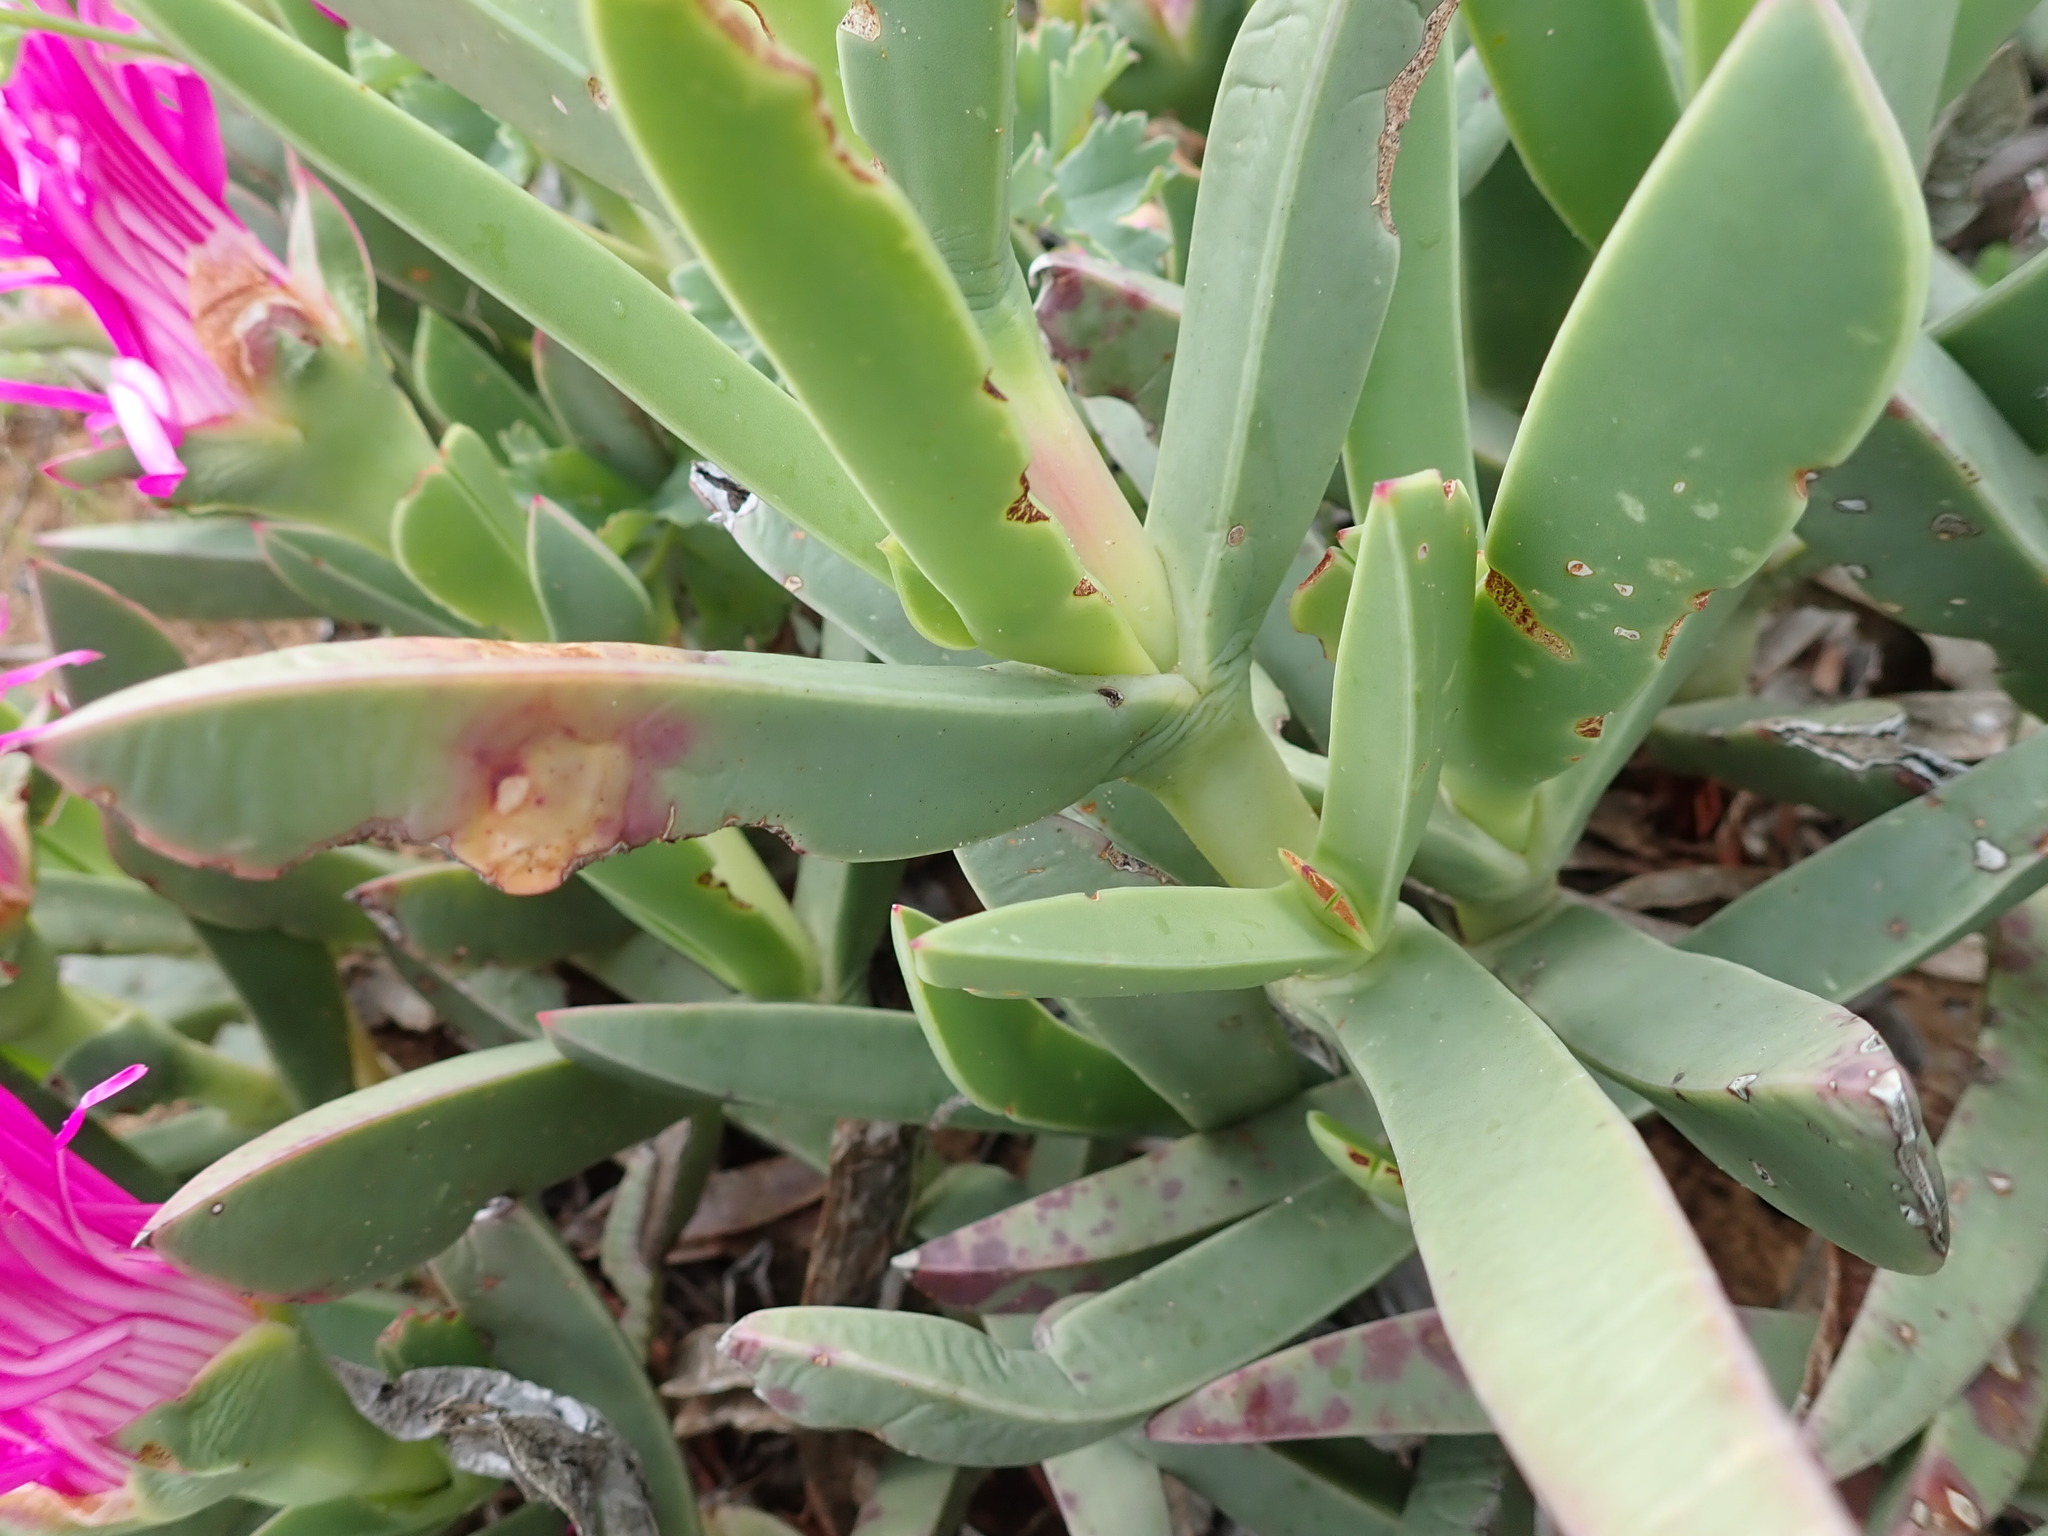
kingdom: Plantae
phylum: Tracheophyta
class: Magnoliopsida
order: Caryophyllales
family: Aizoaceae
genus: Carpobrotus
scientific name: Carpobrotus quadrifidus
